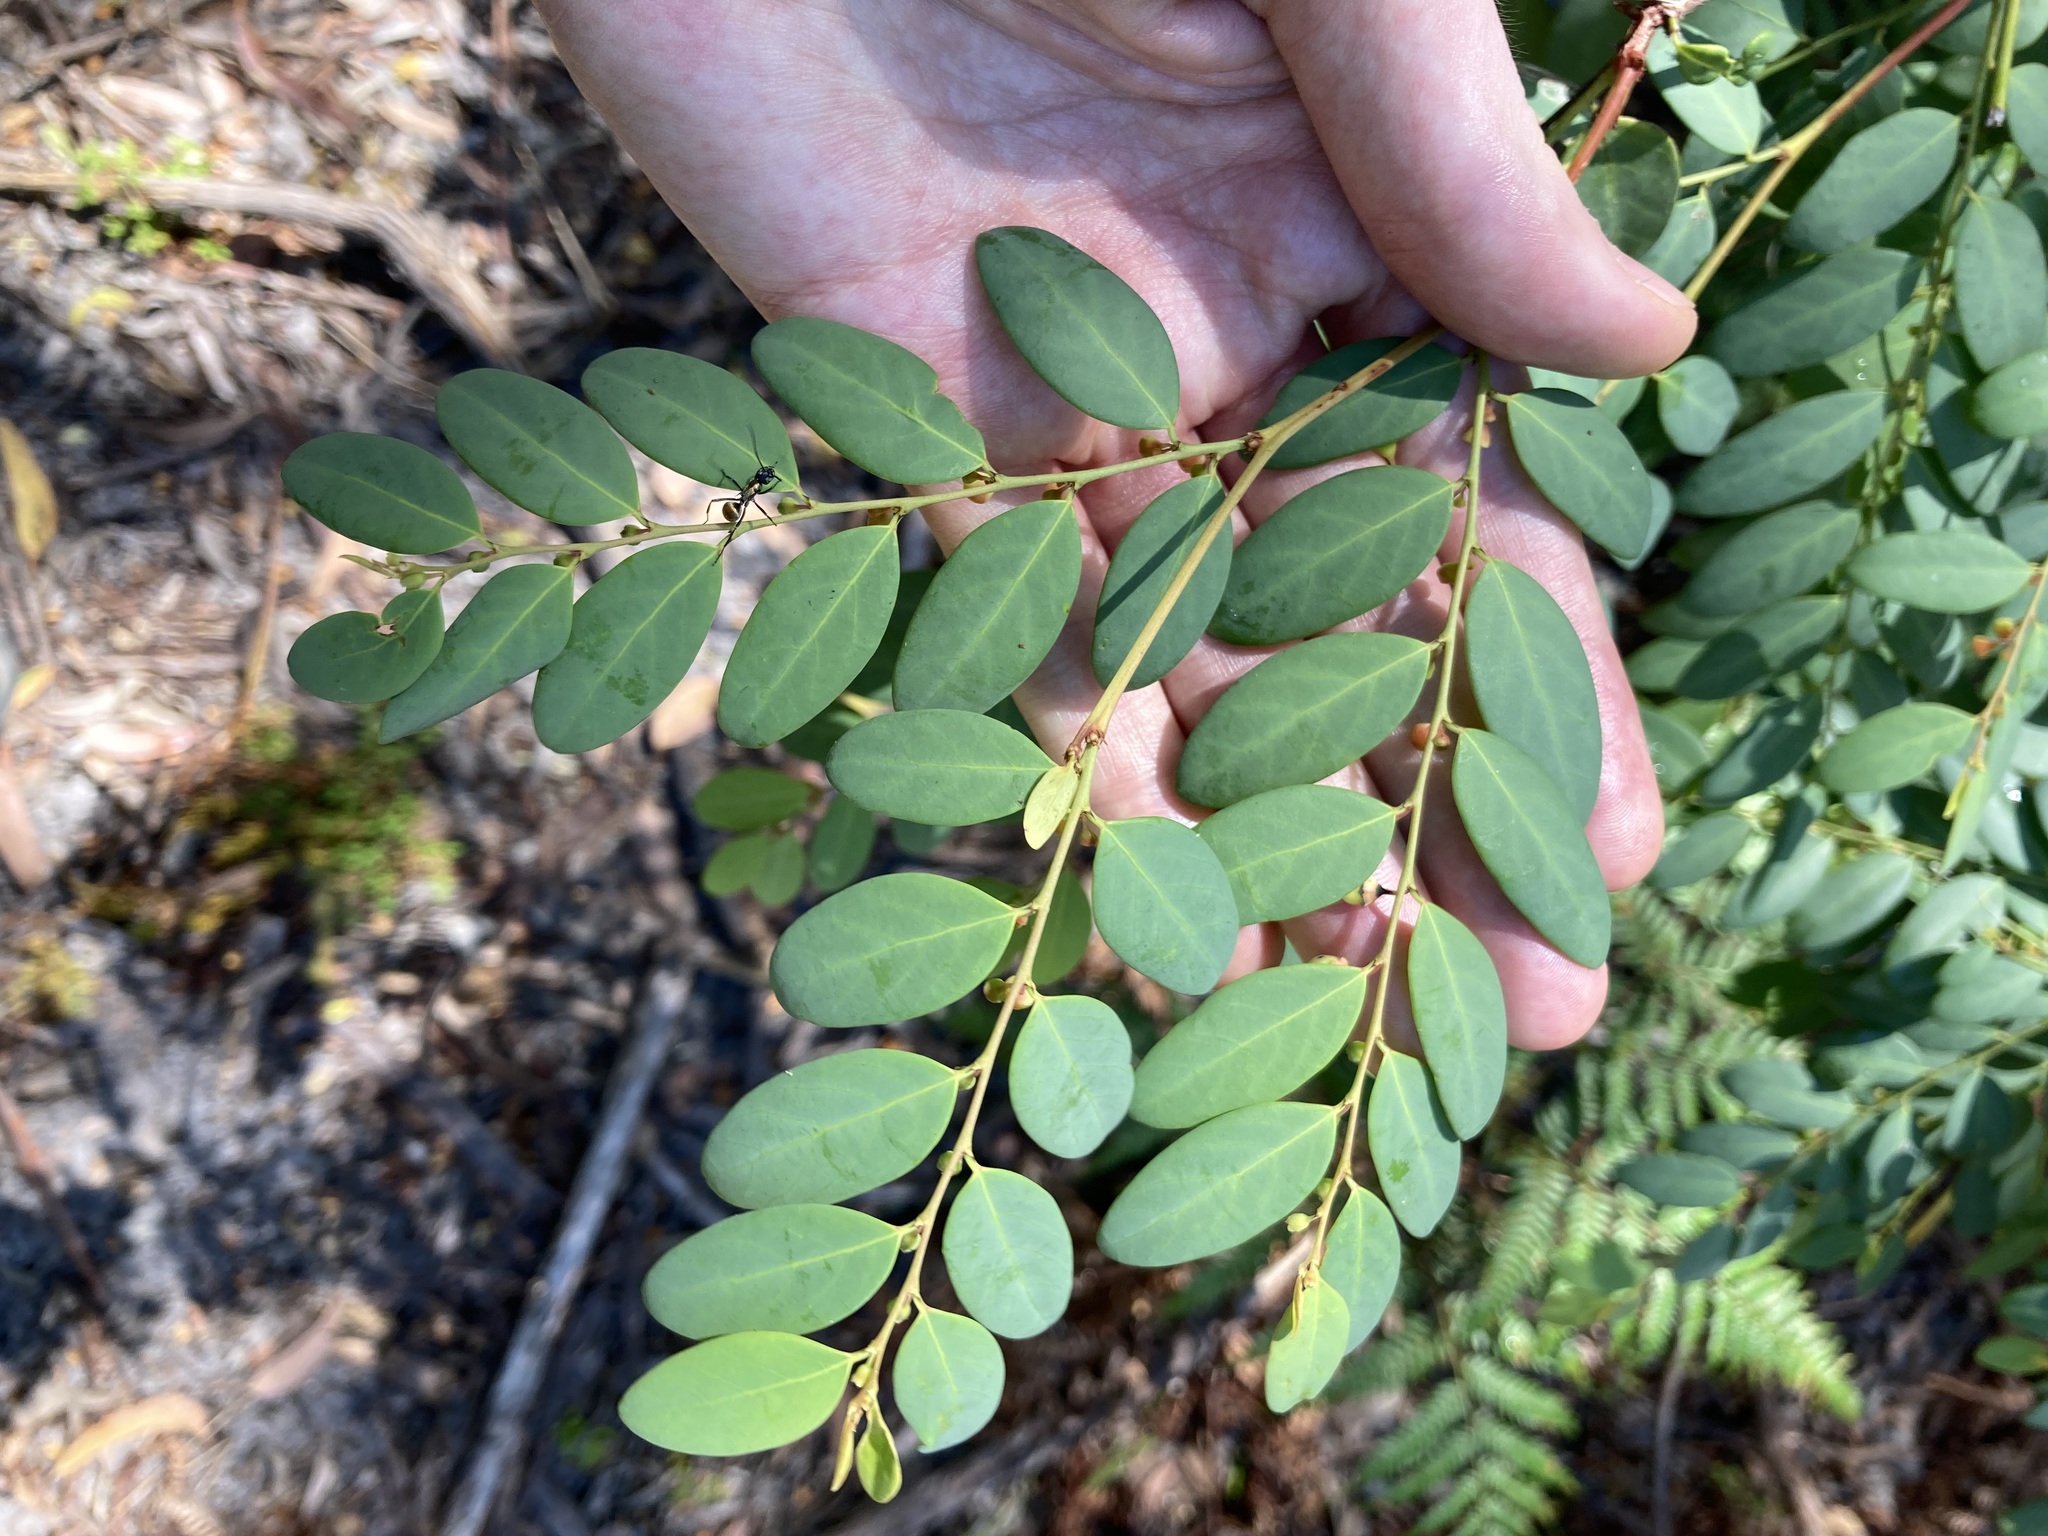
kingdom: Plantae
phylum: Tracheophyta
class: Magnoliopsida
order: Malpighiales
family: Phyllanthaceae
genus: Breynia
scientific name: Breynia oblongifolia
